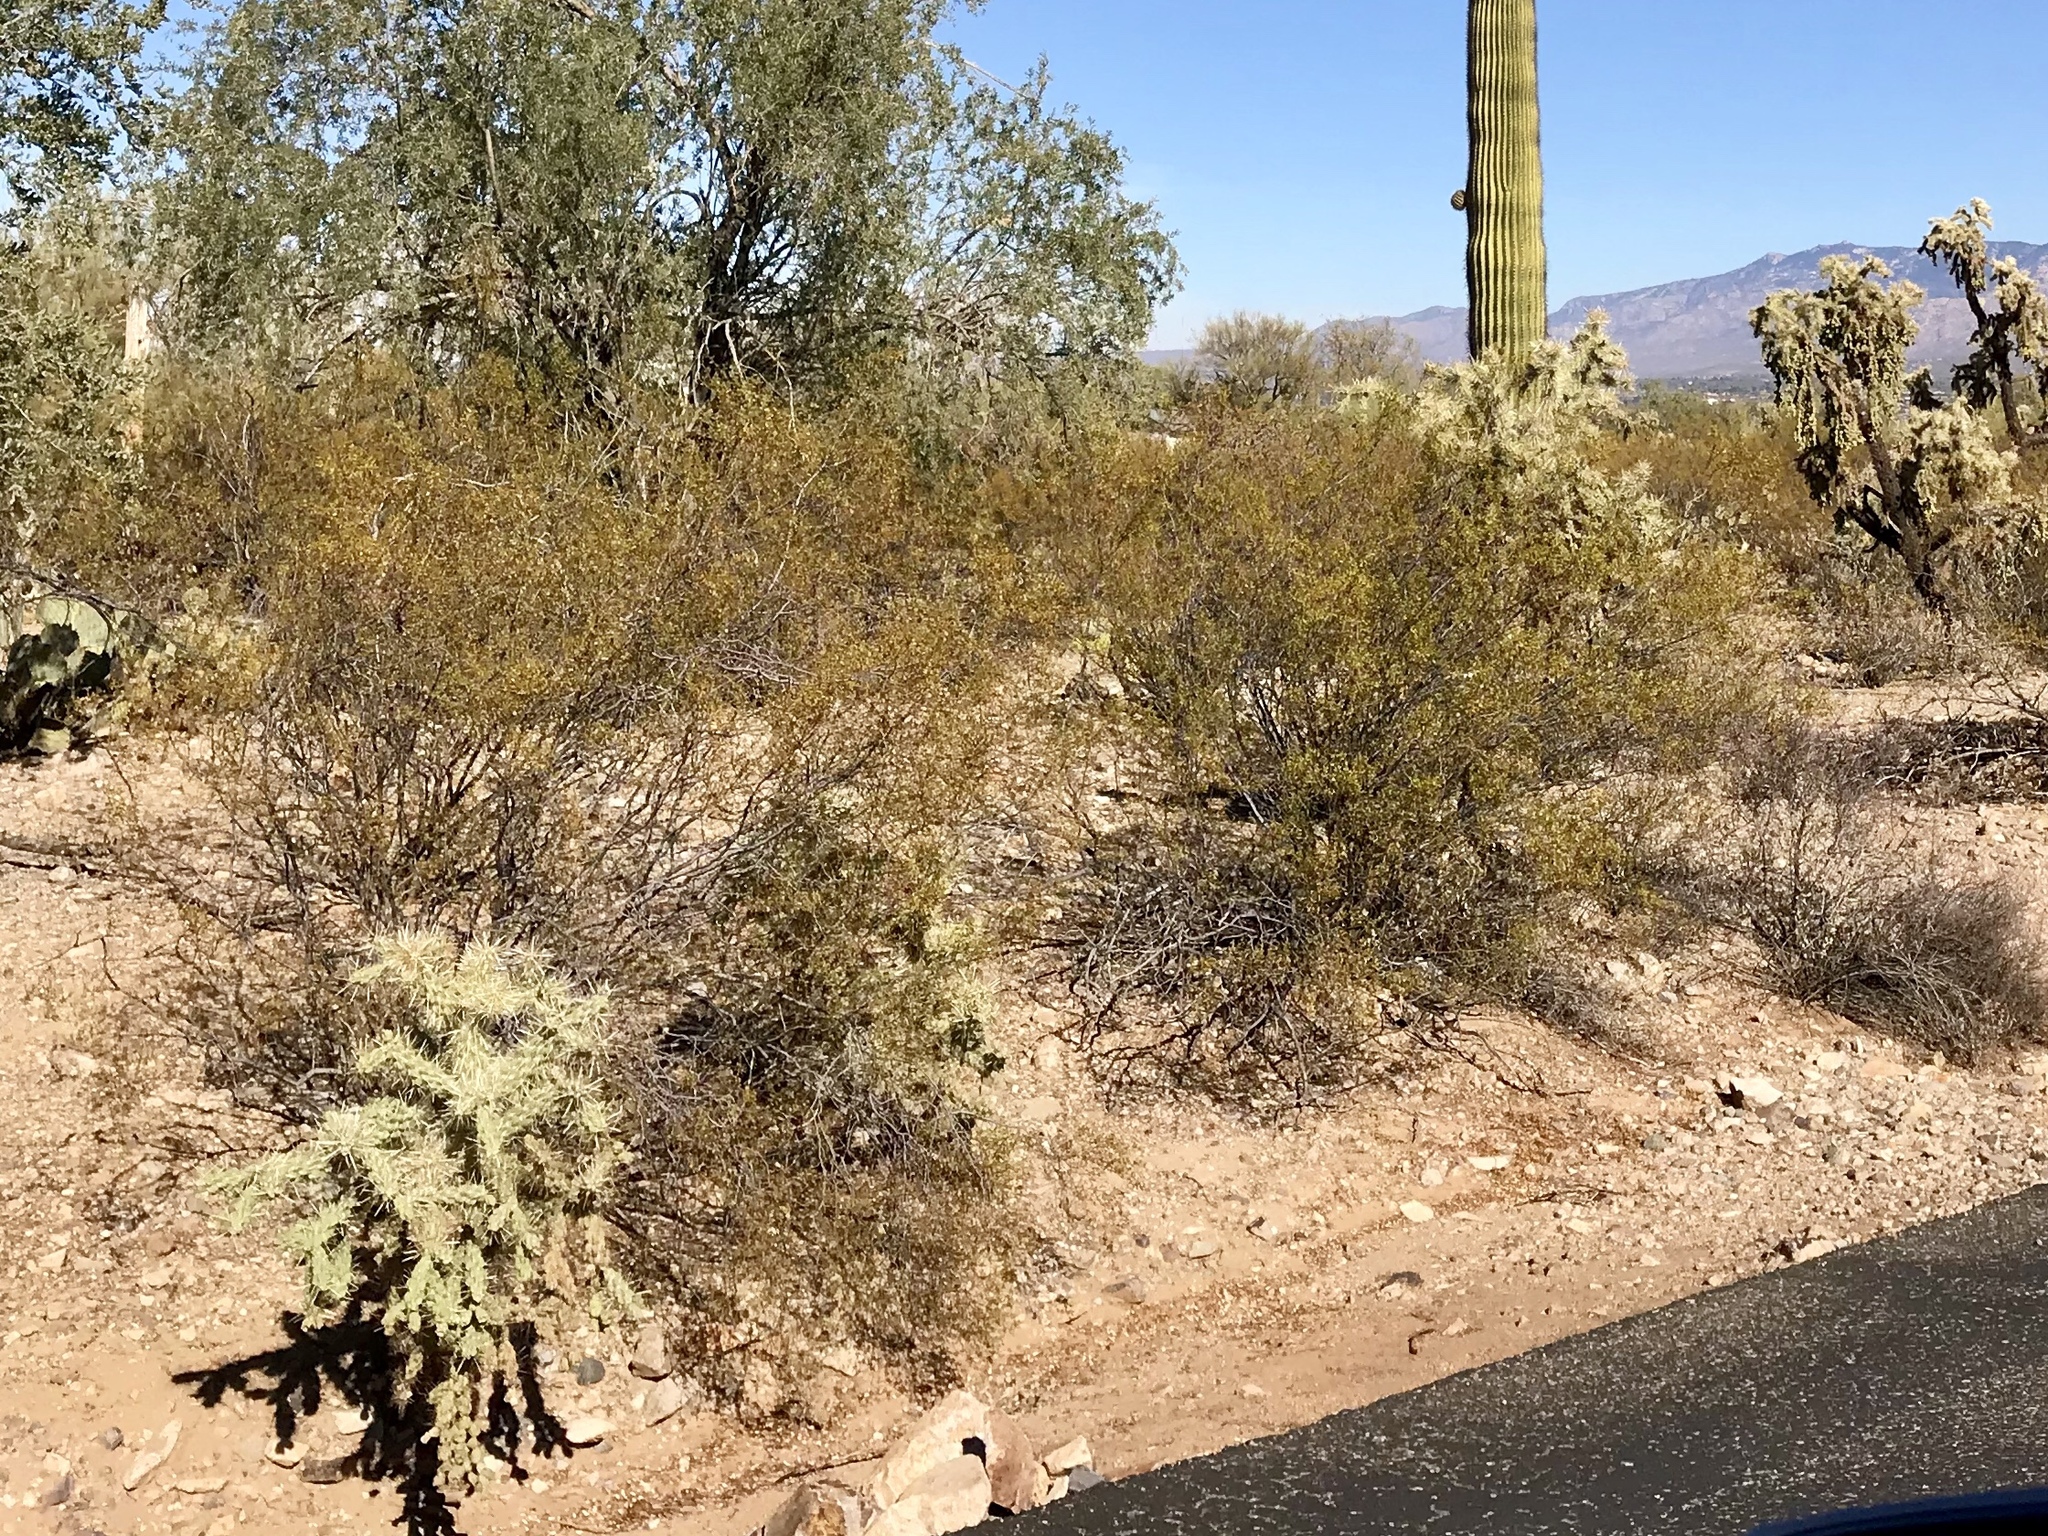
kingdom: Plantae
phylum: Tracheophyta
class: Magnoliopsida
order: Zygophyllales
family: Zygophyllaceae
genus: Larrea
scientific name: Larrea tridentata
